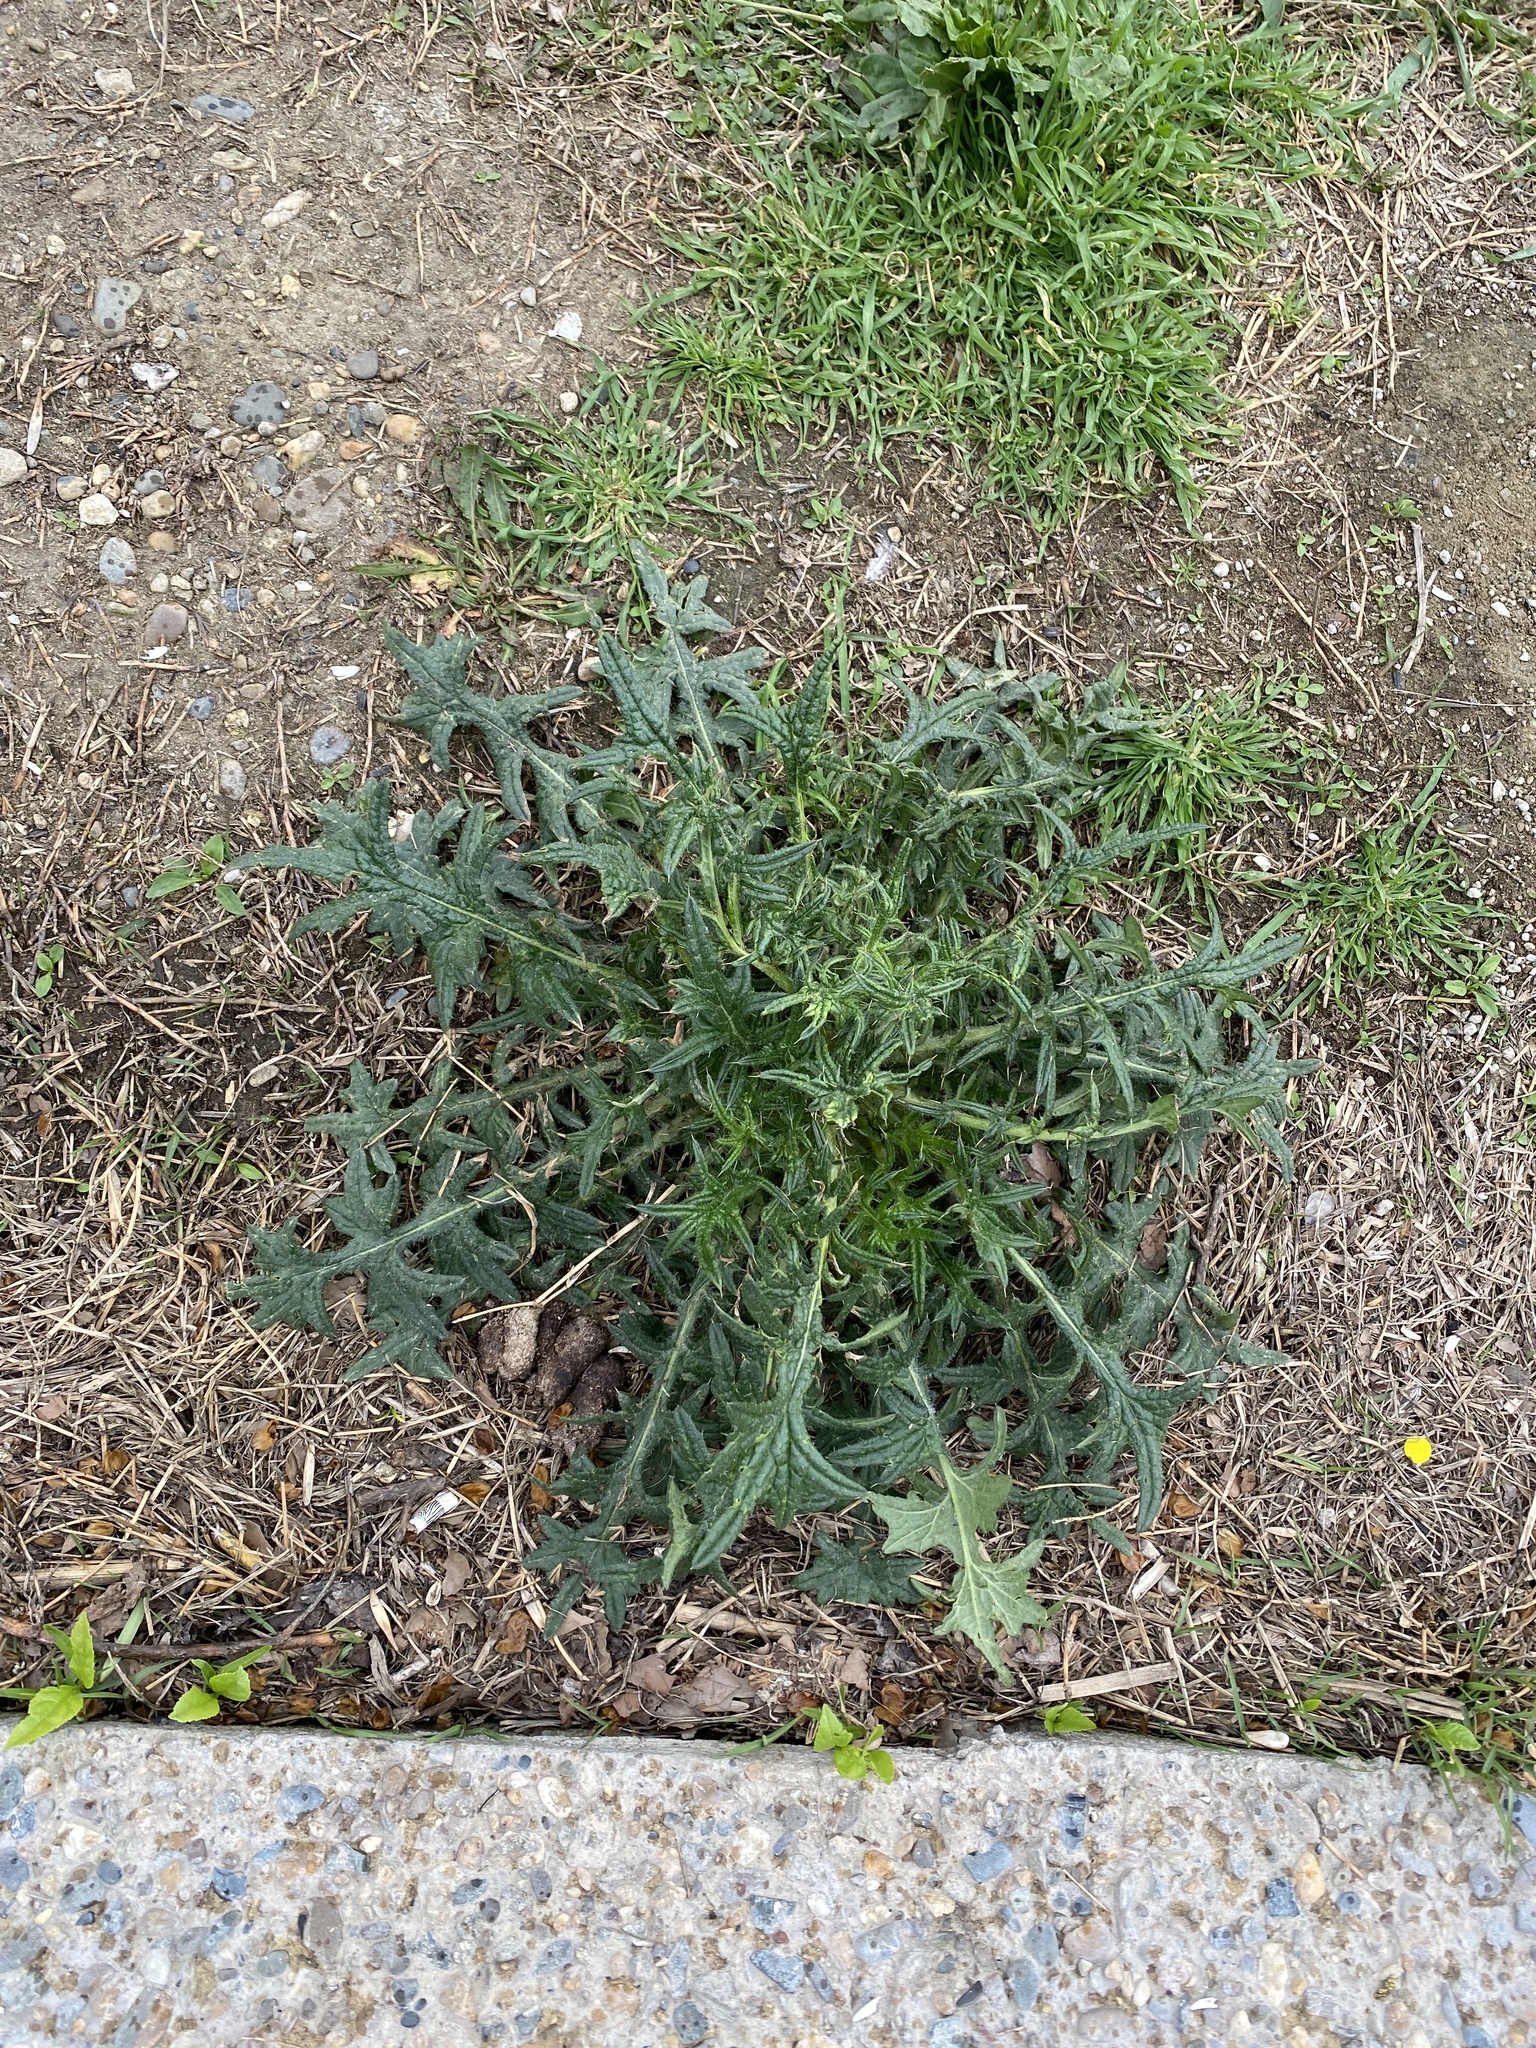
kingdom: Plantae
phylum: Tracheophyta
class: Magnoliopsida
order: Asterales
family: Asteraceae
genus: Cirsium
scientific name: Cirsium vulgare
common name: Bull thistle
